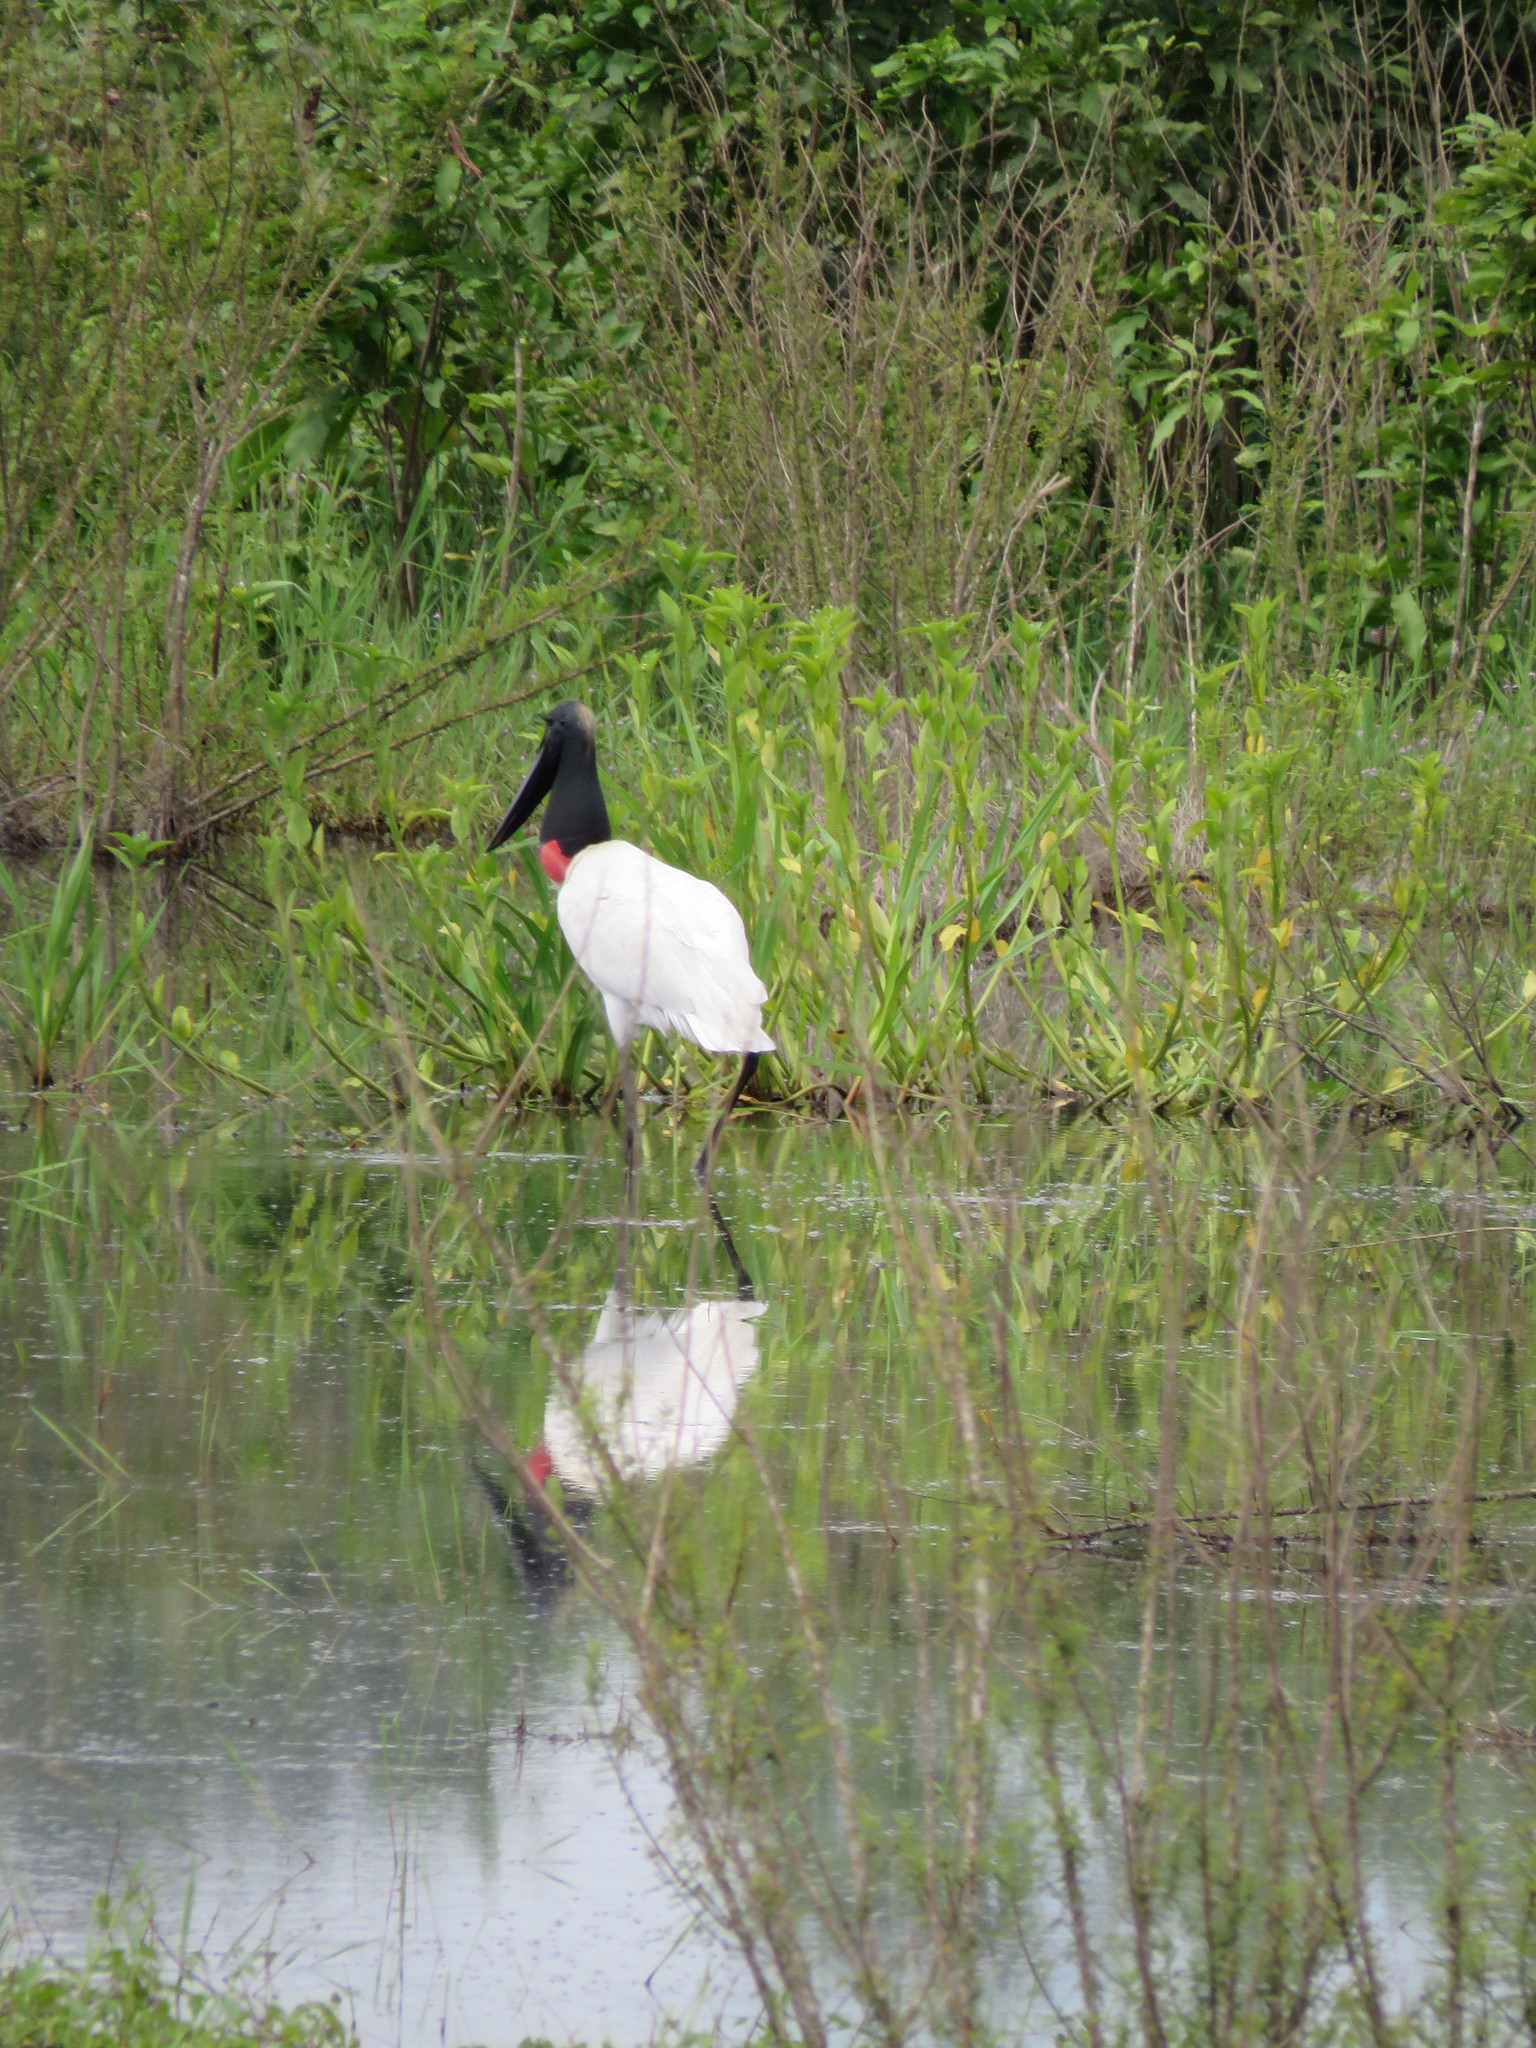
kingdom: Animalia
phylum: Chordata
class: Aves
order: Ciconiiformes
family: Ciconiidae
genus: Jabiru
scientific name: Jabiru mycteria
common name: Jabiru
